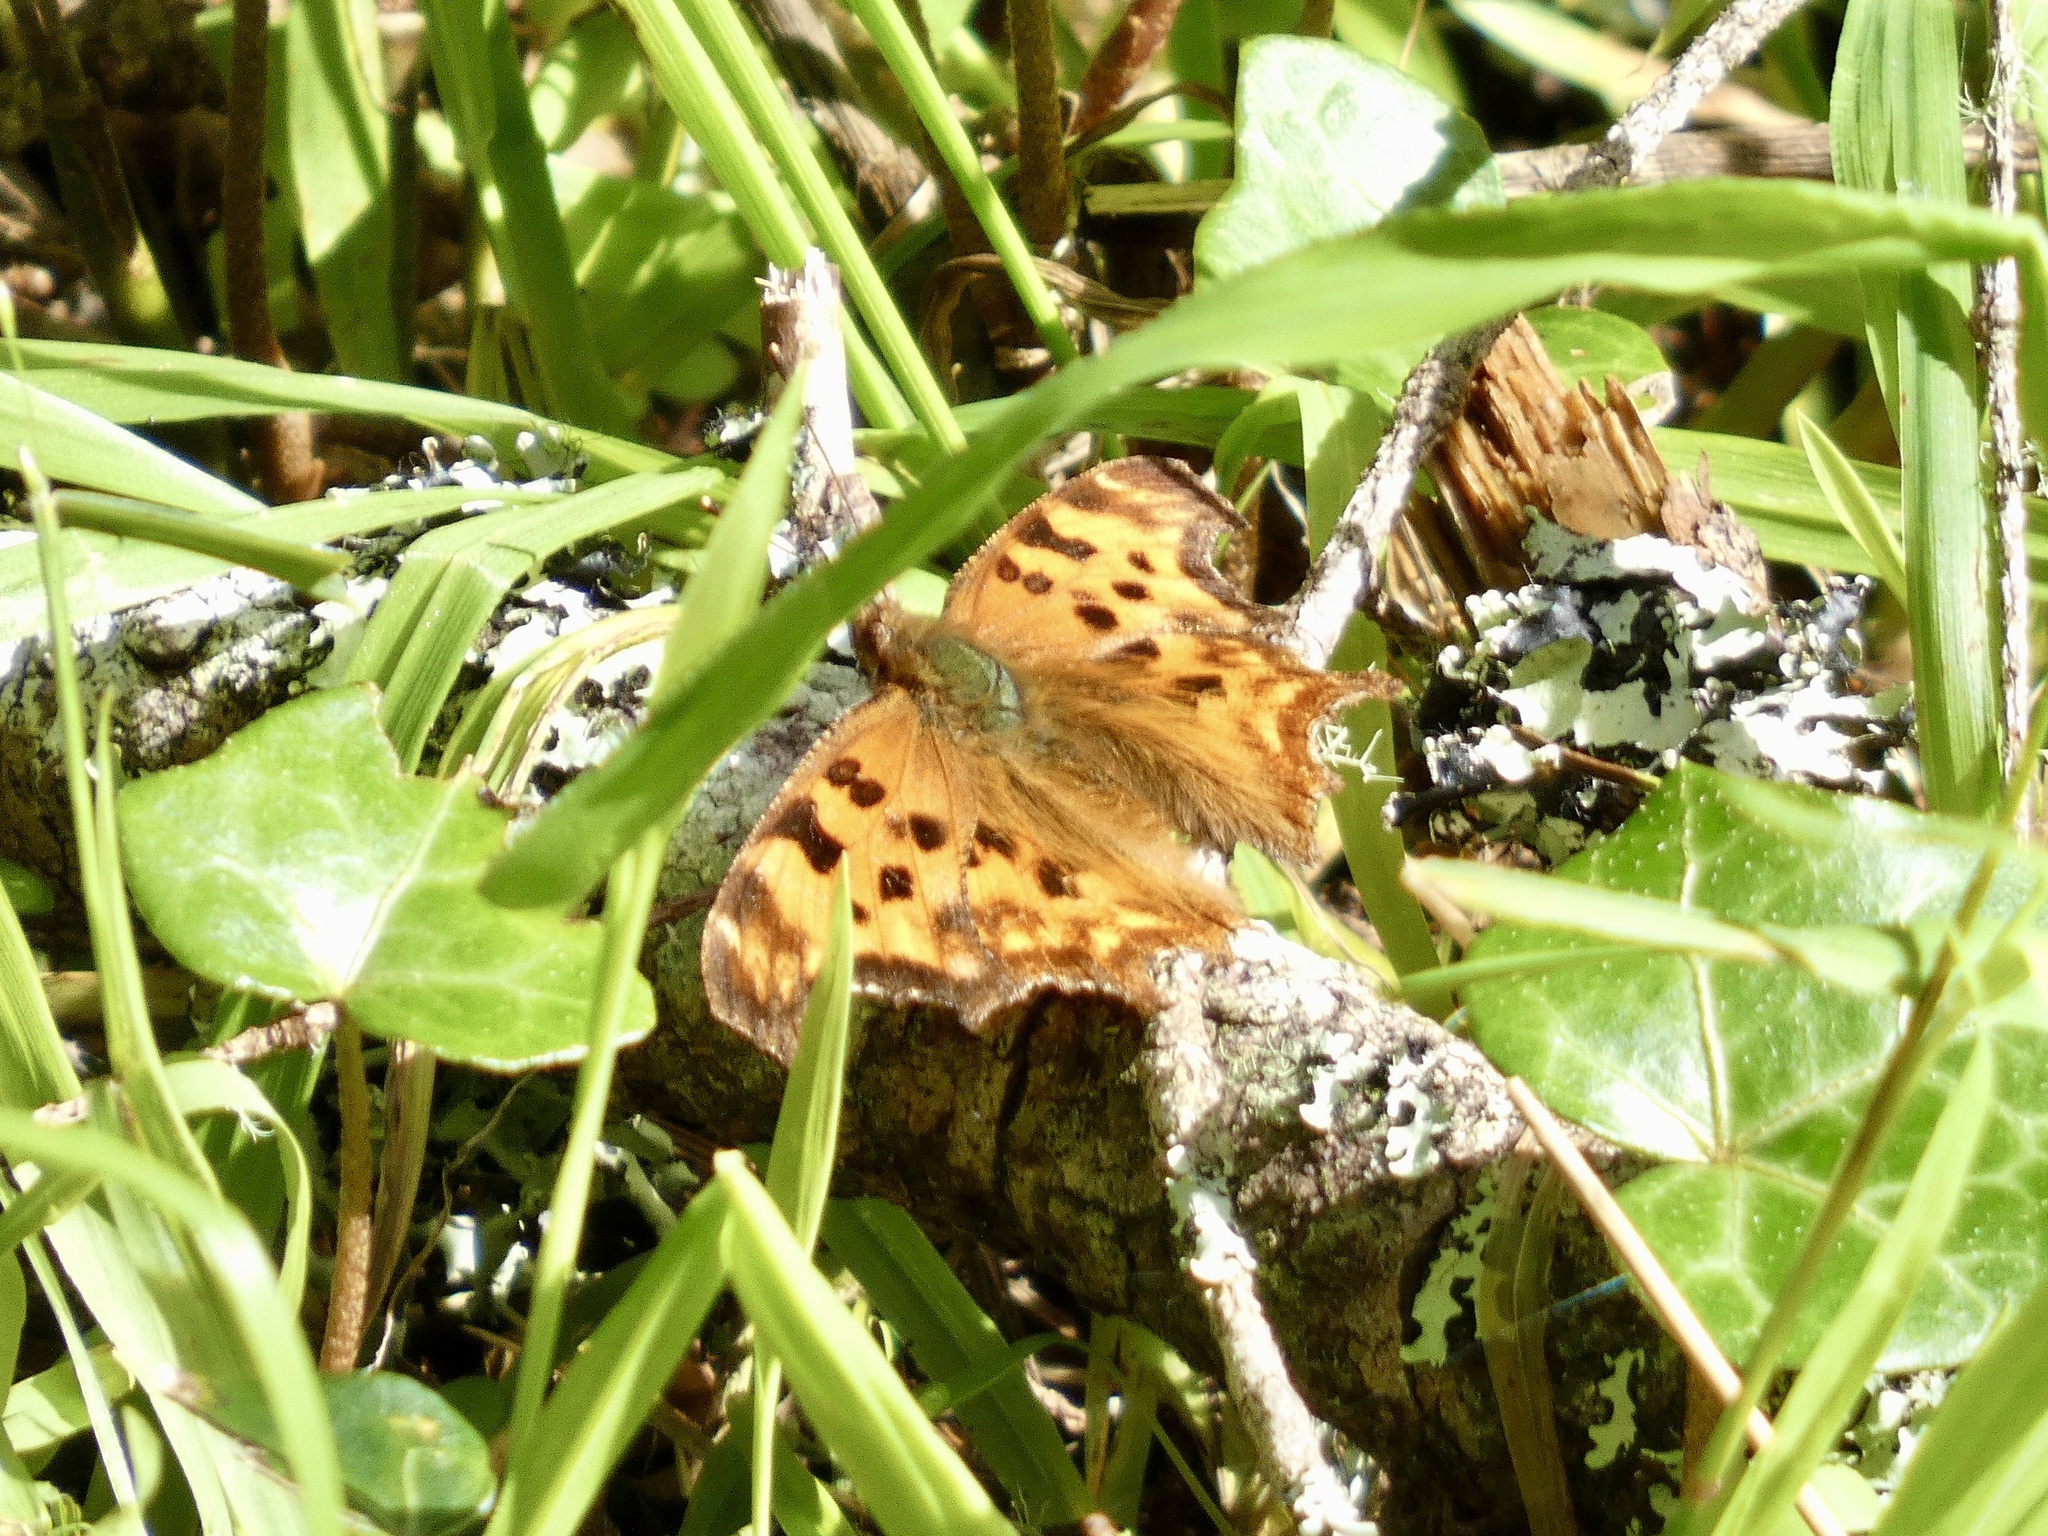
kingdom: Animalia
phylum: Arthropoda
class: Insecta
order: Lepidoptera
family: Nymphalidae
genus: Polygonia
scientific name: Polygonia satyrus
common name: Satyr angle wing
